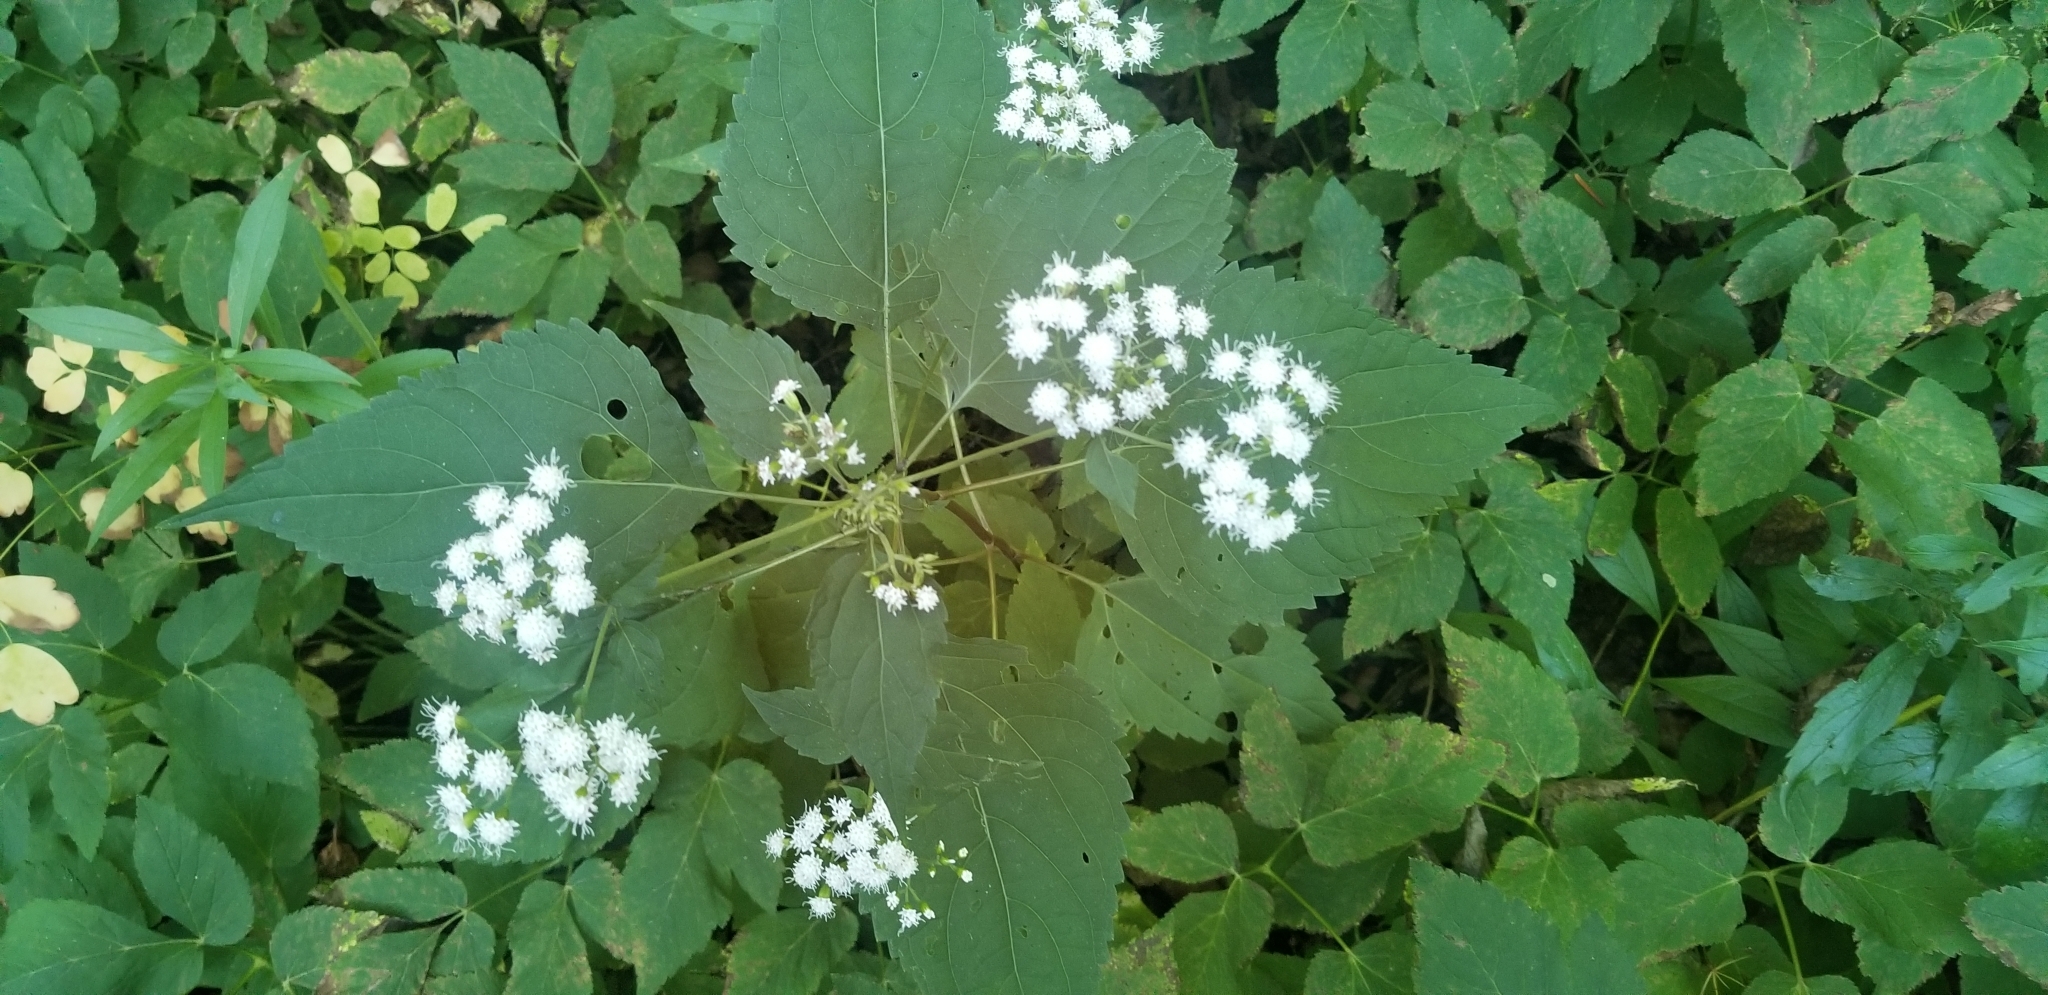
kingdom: Plantae
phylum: Tracheophyta
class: Magnoliopsida
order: Asterales
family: Asteraceae
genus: Ageratina
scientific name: Ageratina altissima
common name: White snakeroot
